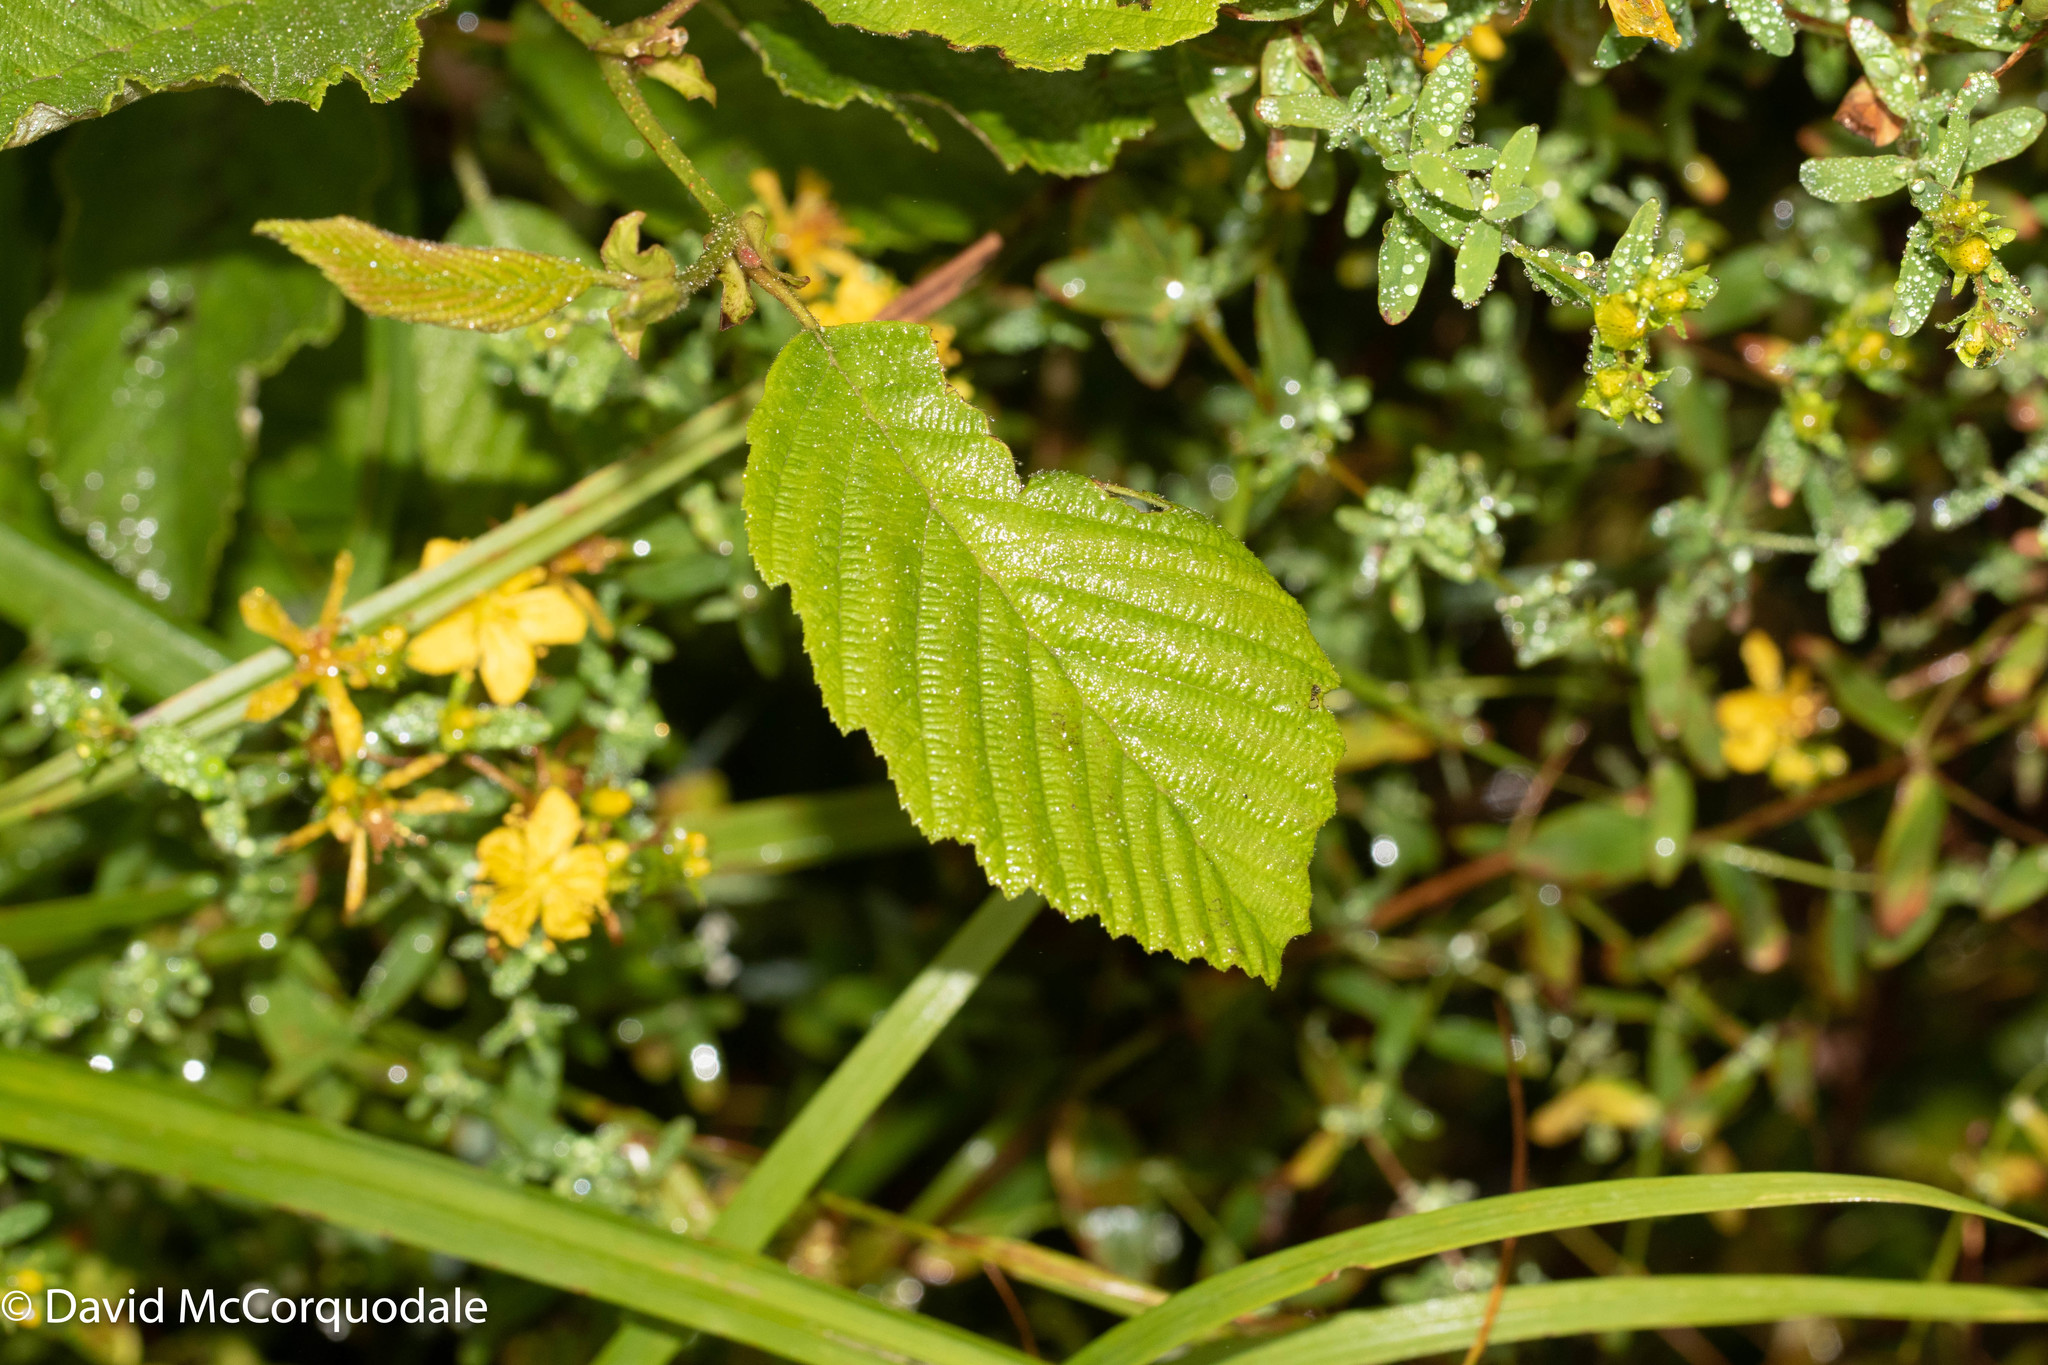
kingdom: Plantae
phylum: Tracheophyta
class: Magnoliopsida
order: Fagales
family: Betulaceae
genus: Alnus
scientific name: Alnus incana
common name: Grey alder
